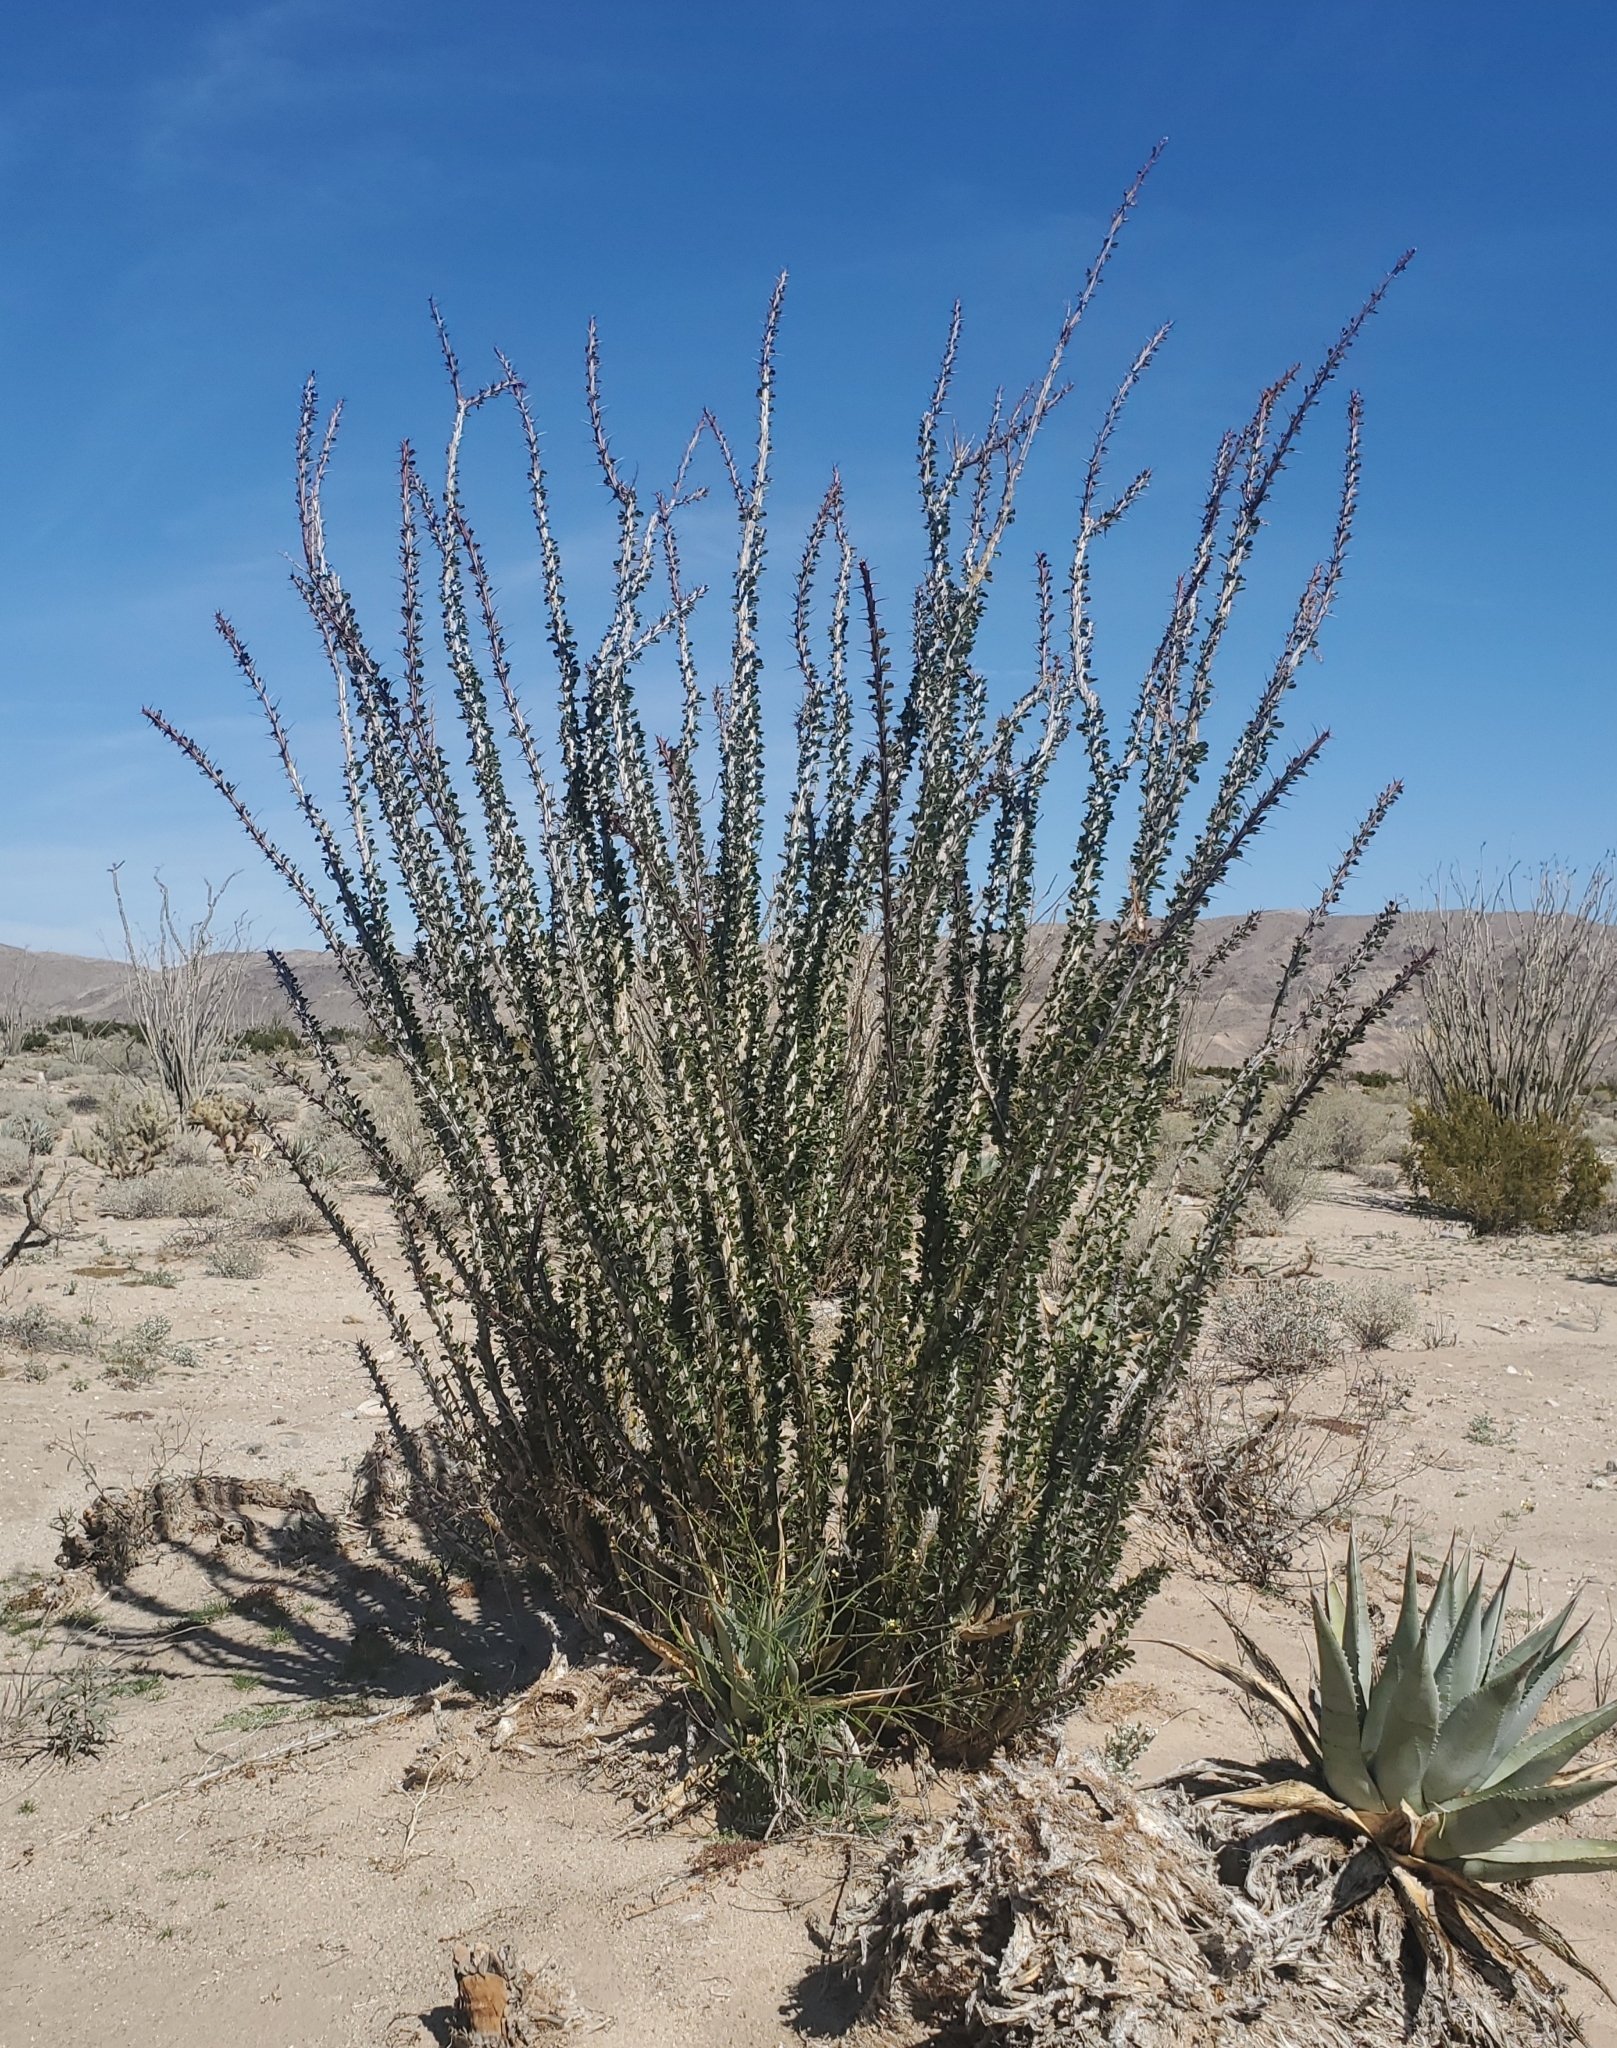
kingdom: Plantae
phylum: Tracheophyta
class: Magnoliopsida
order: Ericales
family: Fouquieriaceae
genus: Fouquieria
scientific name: Fouquieria splendens
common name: Vine-cactus
